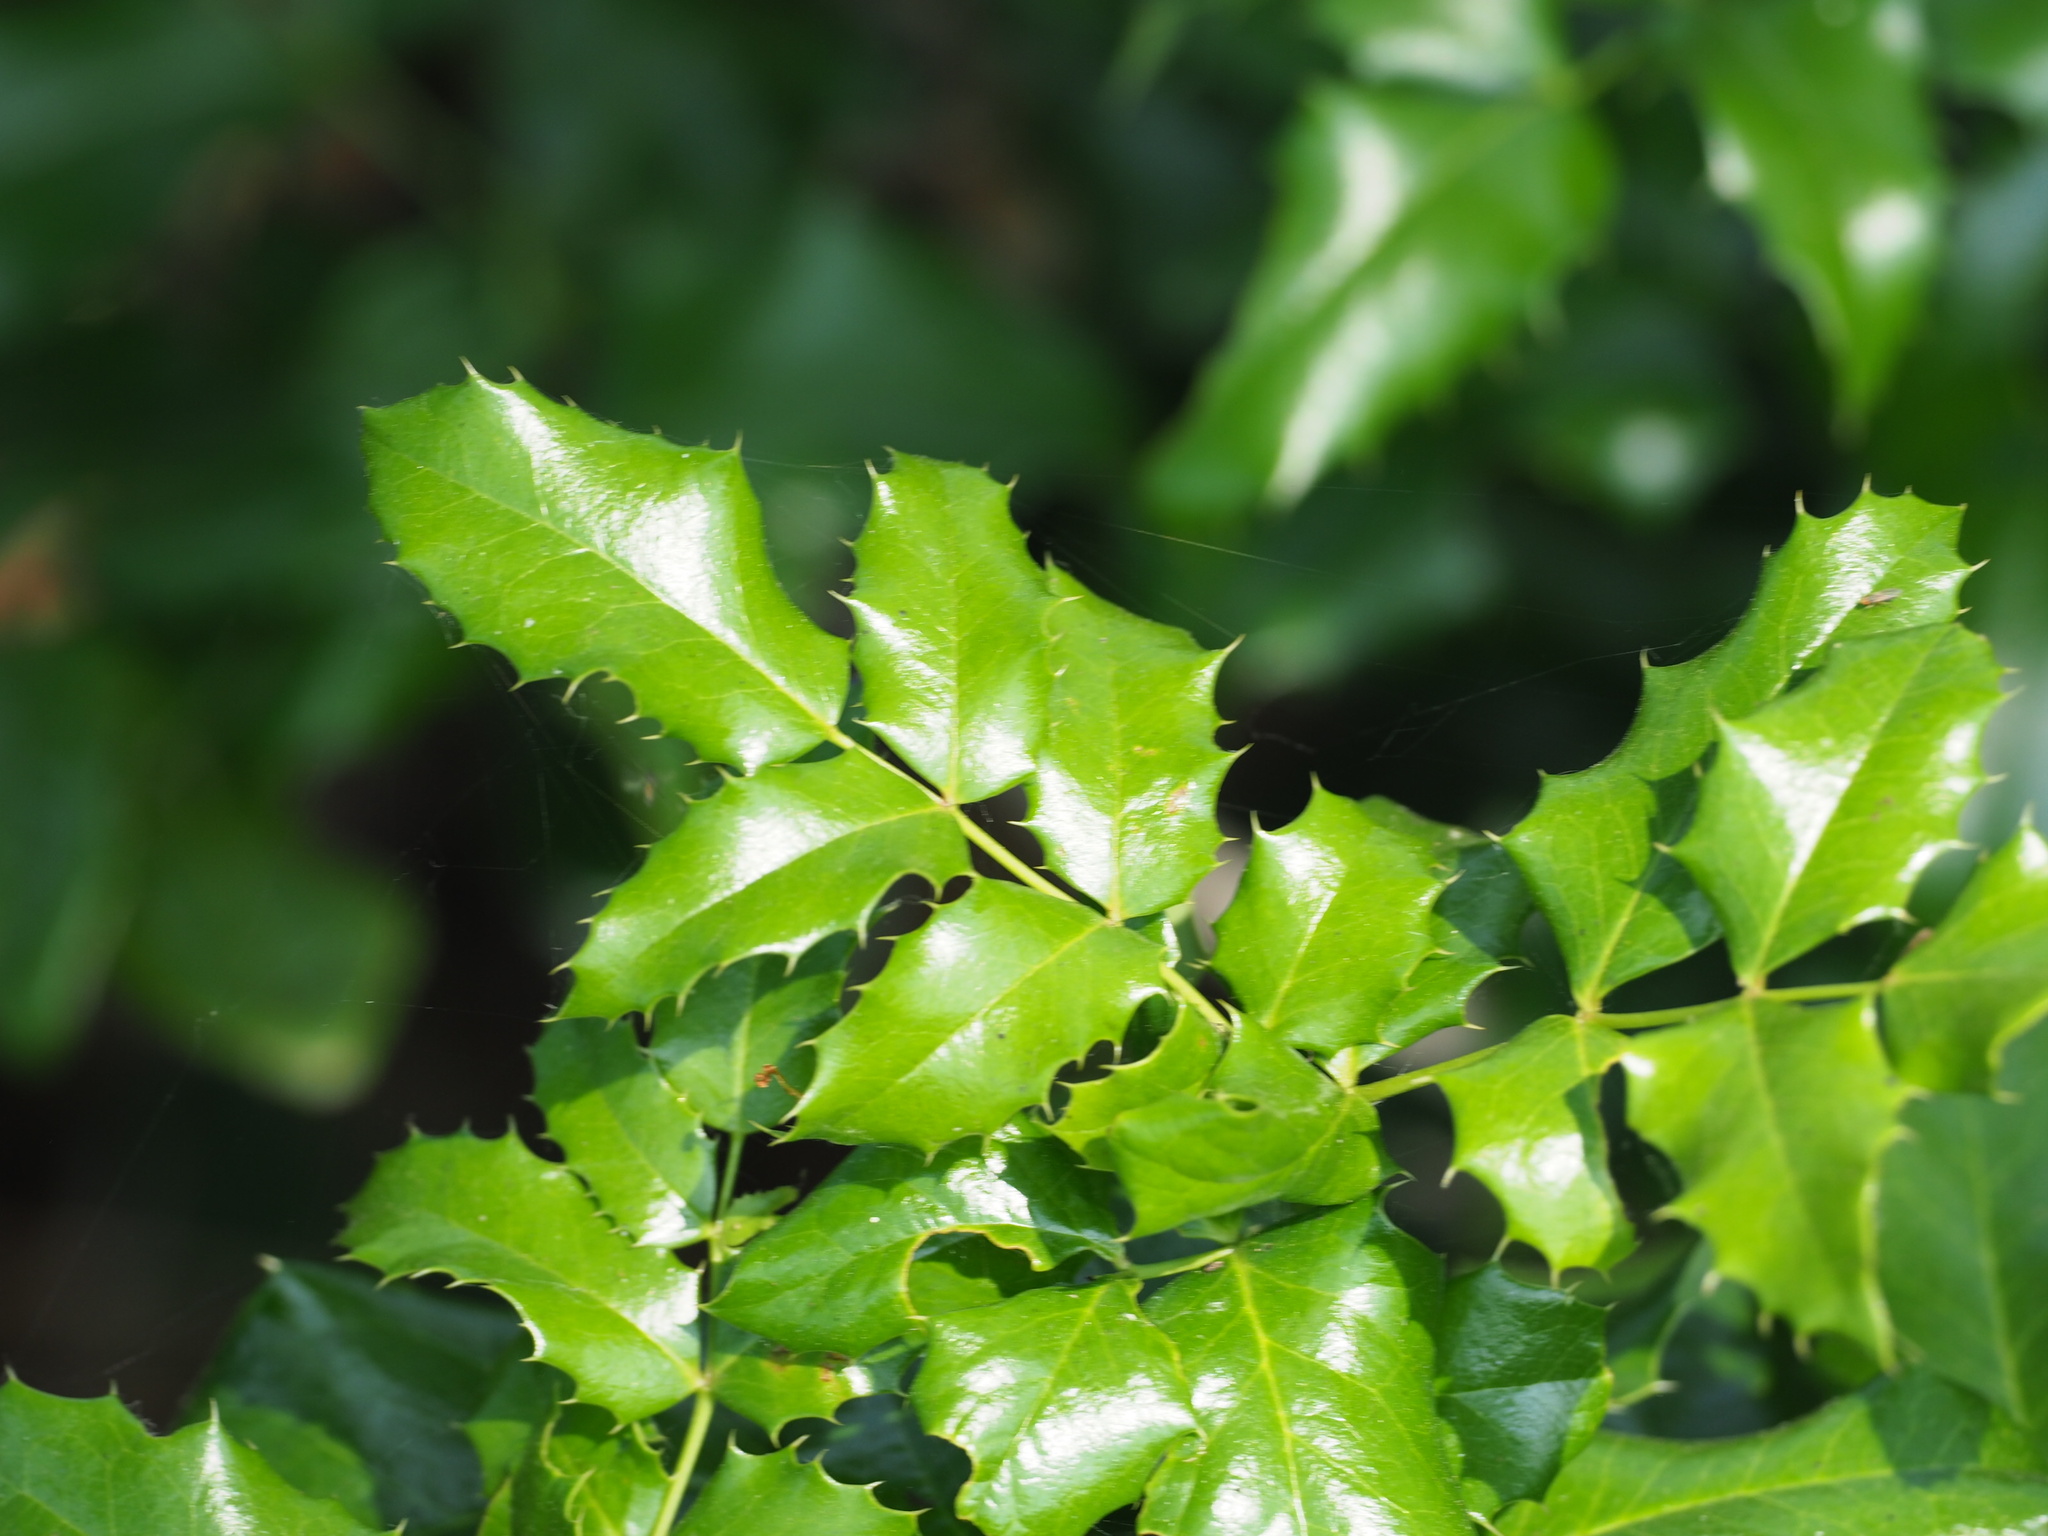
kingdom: Plantae
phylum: Tracheophyta
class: Magnoliopsida
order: Ranunculales
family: Berberidaceae
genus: Mahonia
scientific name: Mahonia aquifolium
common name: Oregon-grape
